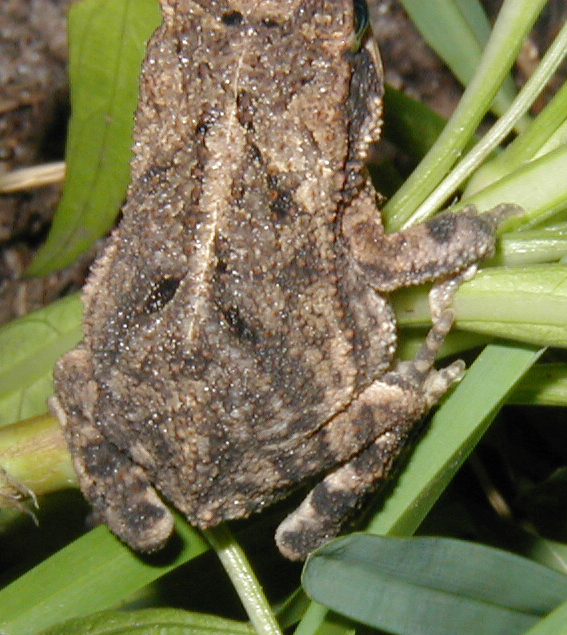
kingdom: Animalia
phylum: Chordata
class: Amphibia
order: Anura
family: Bufonidae
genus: Incilius
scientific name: Incilius nebulifer
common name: Gulf coast toad
